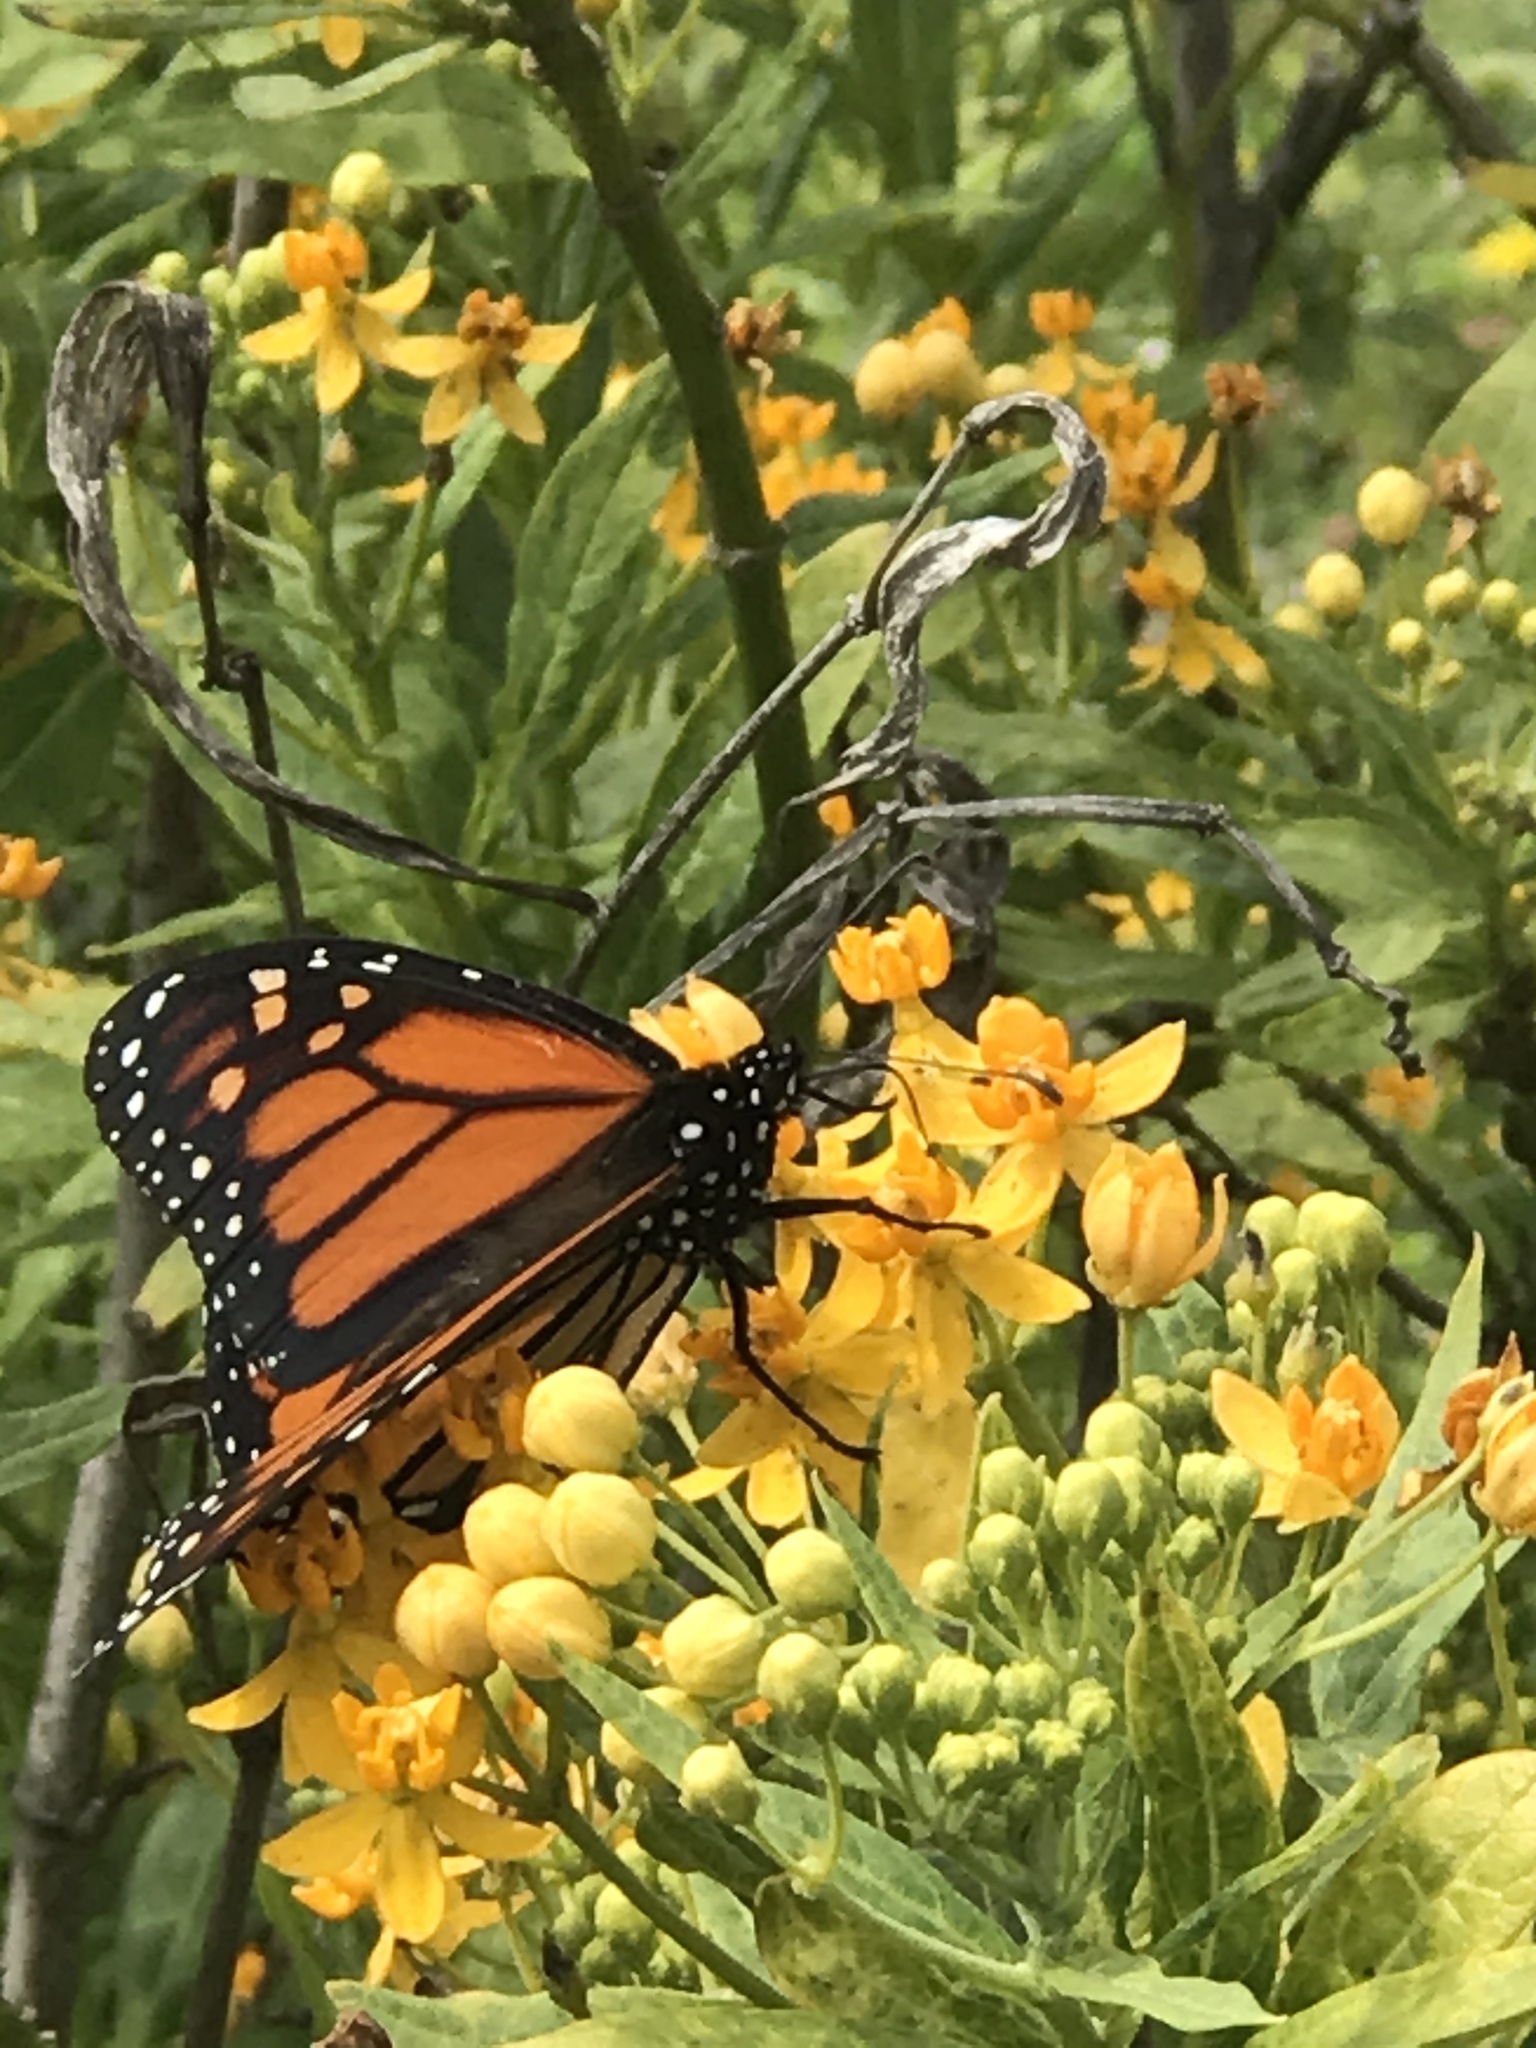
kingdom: Animalia
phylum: Arthropoda
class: Insecta
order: Lepidoptera
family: Nymphalidae
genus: Danaus
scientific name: Danaus plexippus
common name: Monarch
